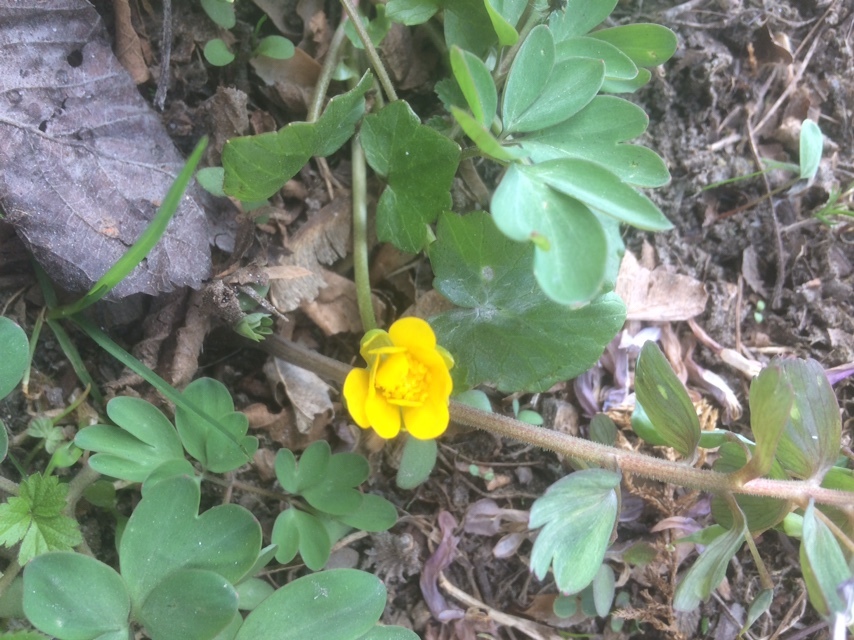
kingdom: Plantae
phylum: Tracheophyta
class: Magnoliopsida
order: Ranunculales
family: Ranunculaceae
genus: Ficaria
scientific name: Ficaria verna
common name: Lesser celandine
